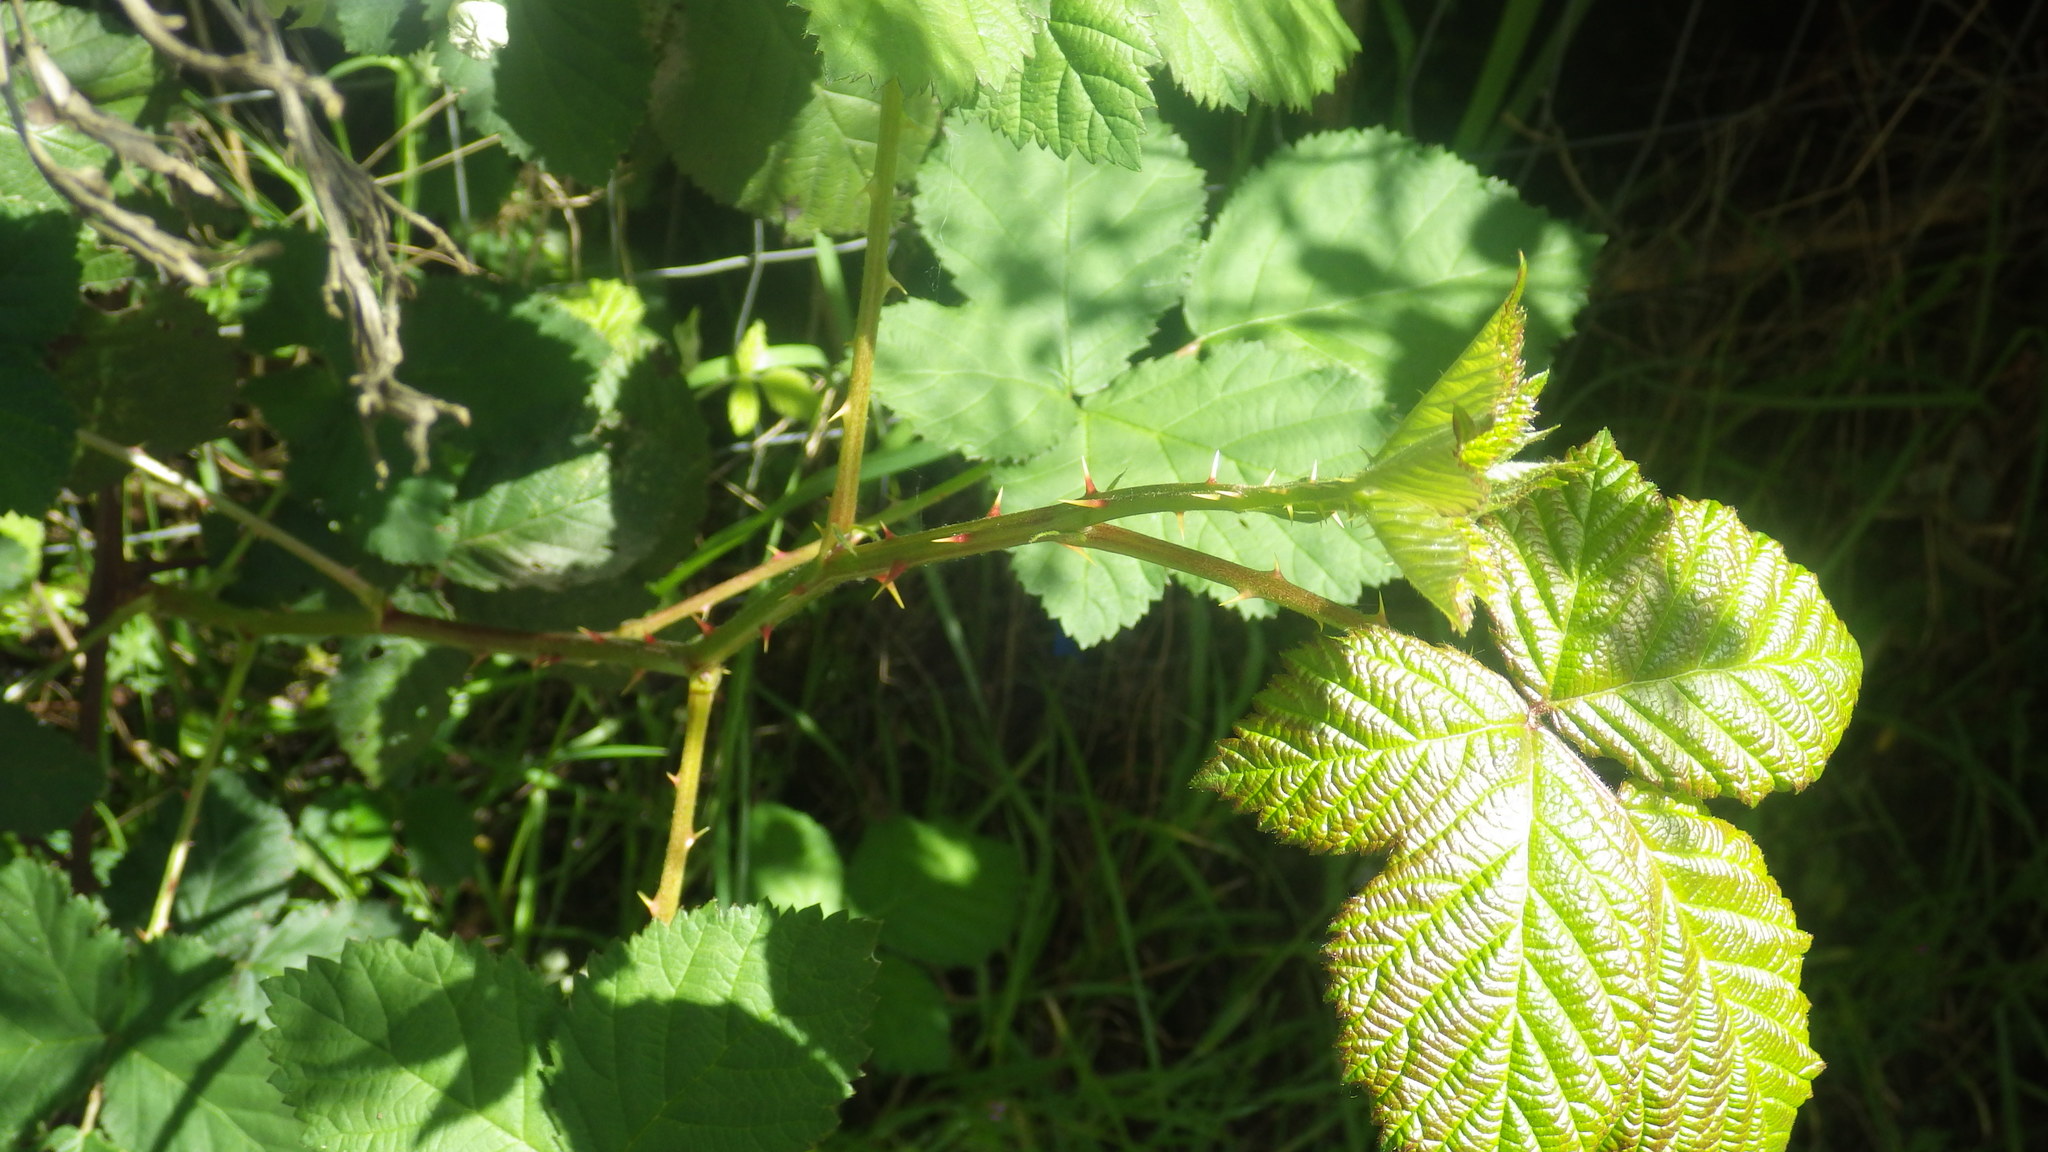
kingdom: Plantae
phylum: Tracheophyta
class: Magnoliopsida
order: Rosales
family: Rosaceae
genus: Rubus
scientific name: Rubus armeniacus
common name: Himalayan blackberry
